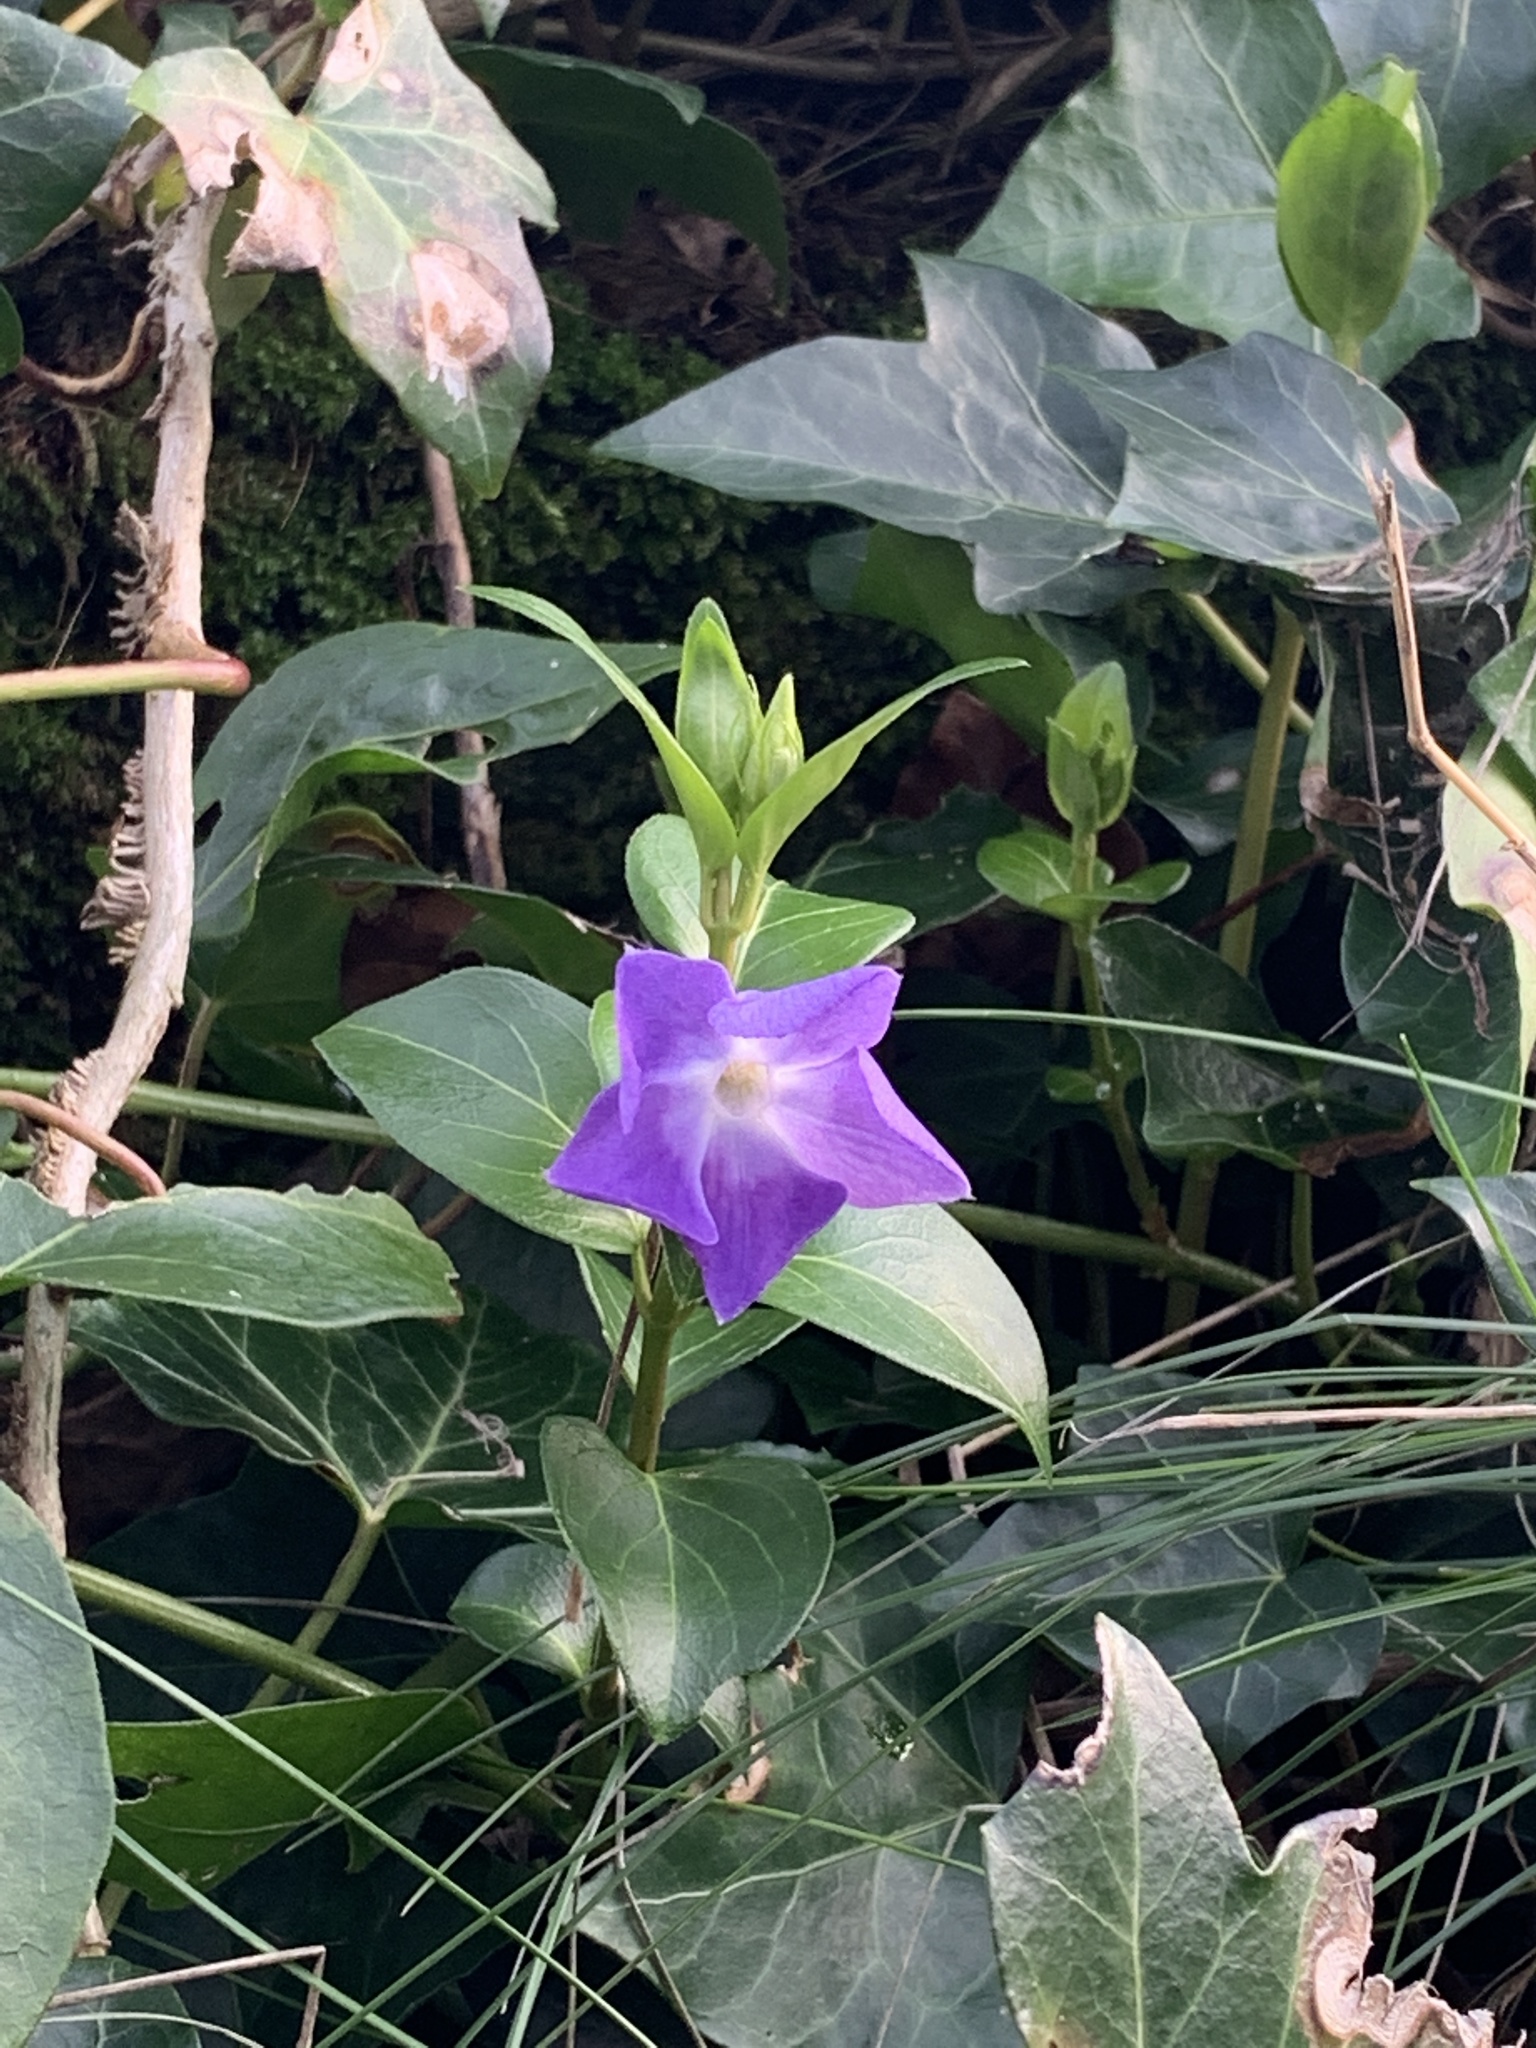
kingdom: Plantae
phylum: Tracheophyta
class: Magnoliopsida
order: Gentianales
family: Apocynaceae
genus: Vinca
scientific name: Vinca major
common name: Greater periwinkle
